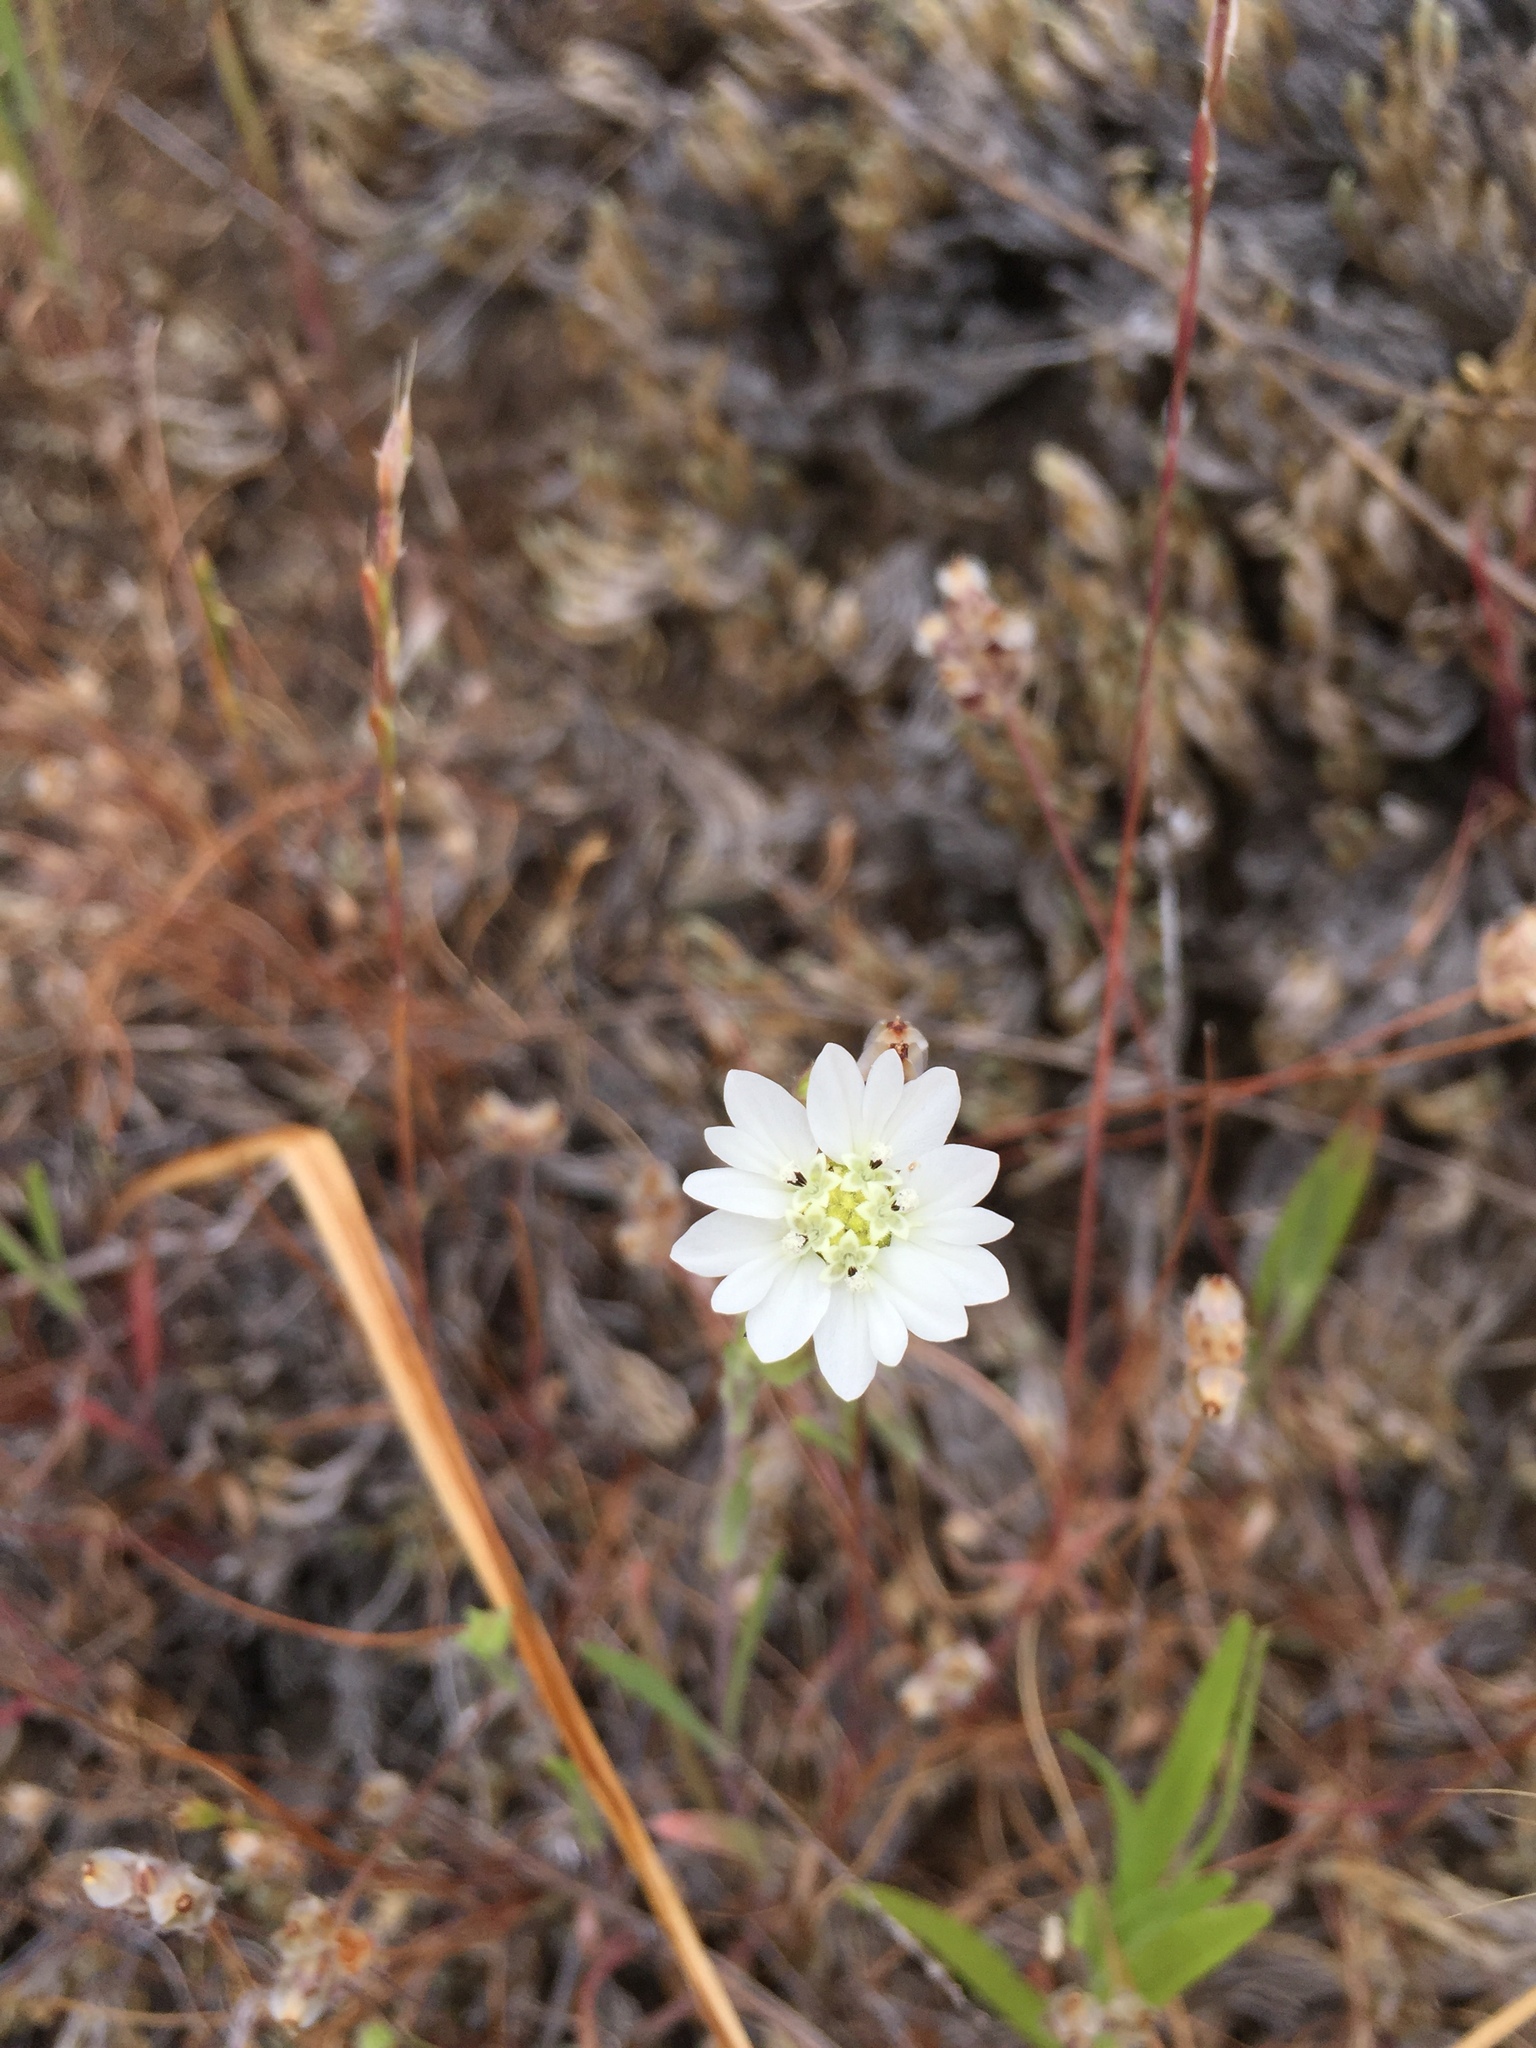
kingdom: Plantae
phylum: Tracheophyta
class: Magnoliopsida
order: Asterales
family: Asteraceae
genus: Hemizonia
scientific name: Hemizonia congesta
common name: Hayfield tarweed
